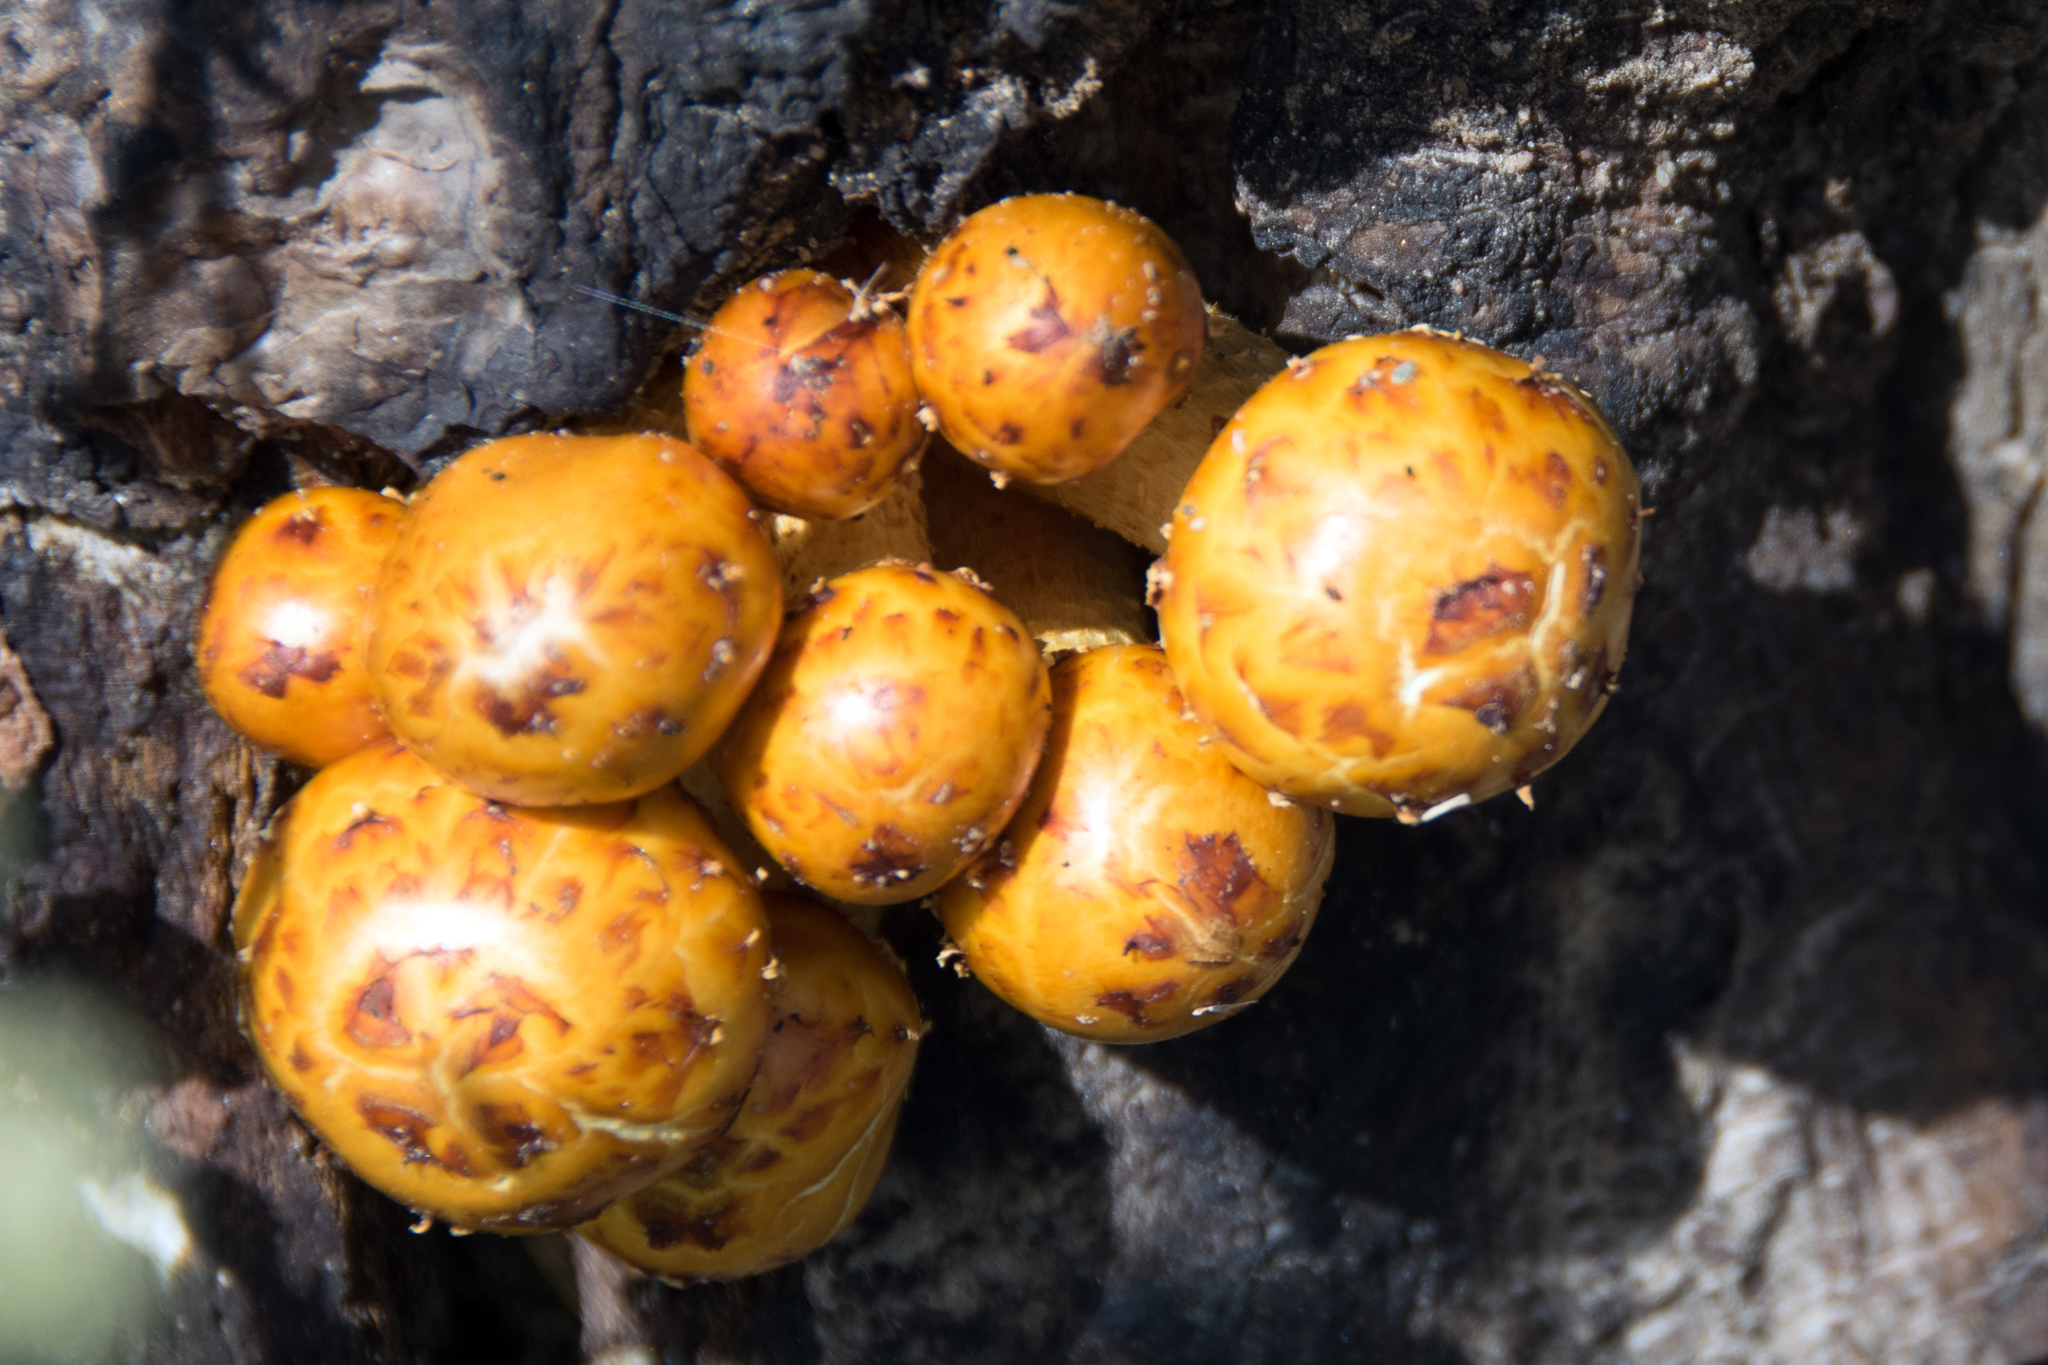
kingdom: Fungi
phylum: Basidiomycota
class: Agaricomycetes
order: Agaricales
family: Strophariaceae
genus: Pholiota
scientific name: Pholiota aurivella
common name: Golden scalycap
